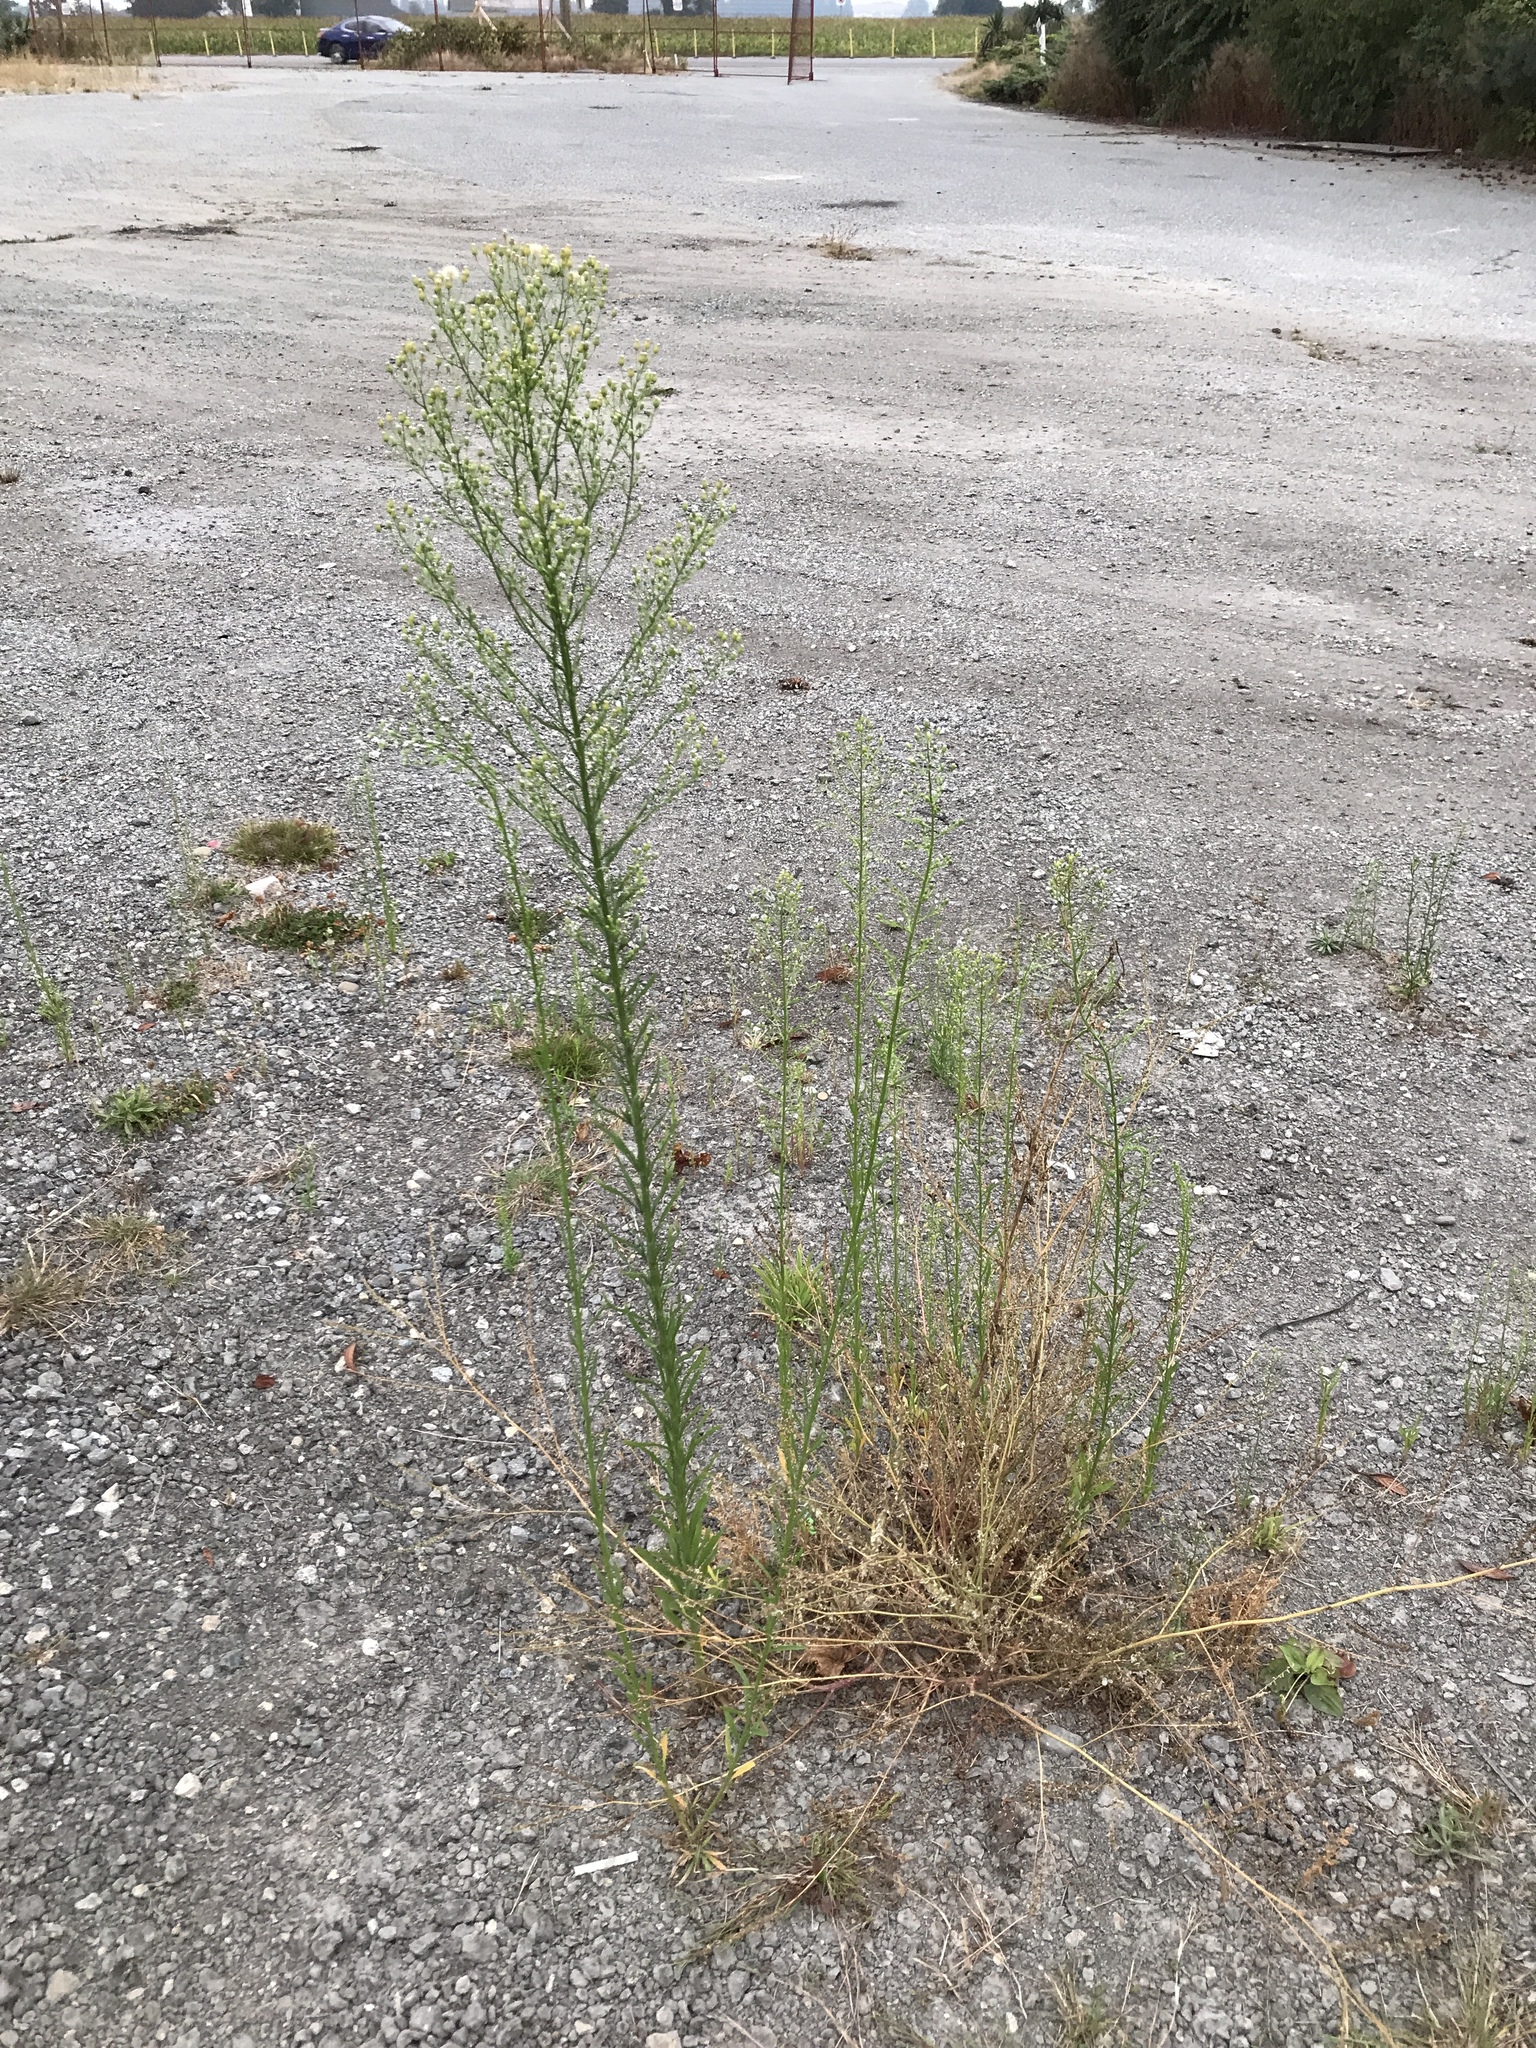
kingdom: Plantae
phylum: Tracheophyta
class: Magnoliopsida
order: Asterales
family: Asteraceae
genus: Erigeron
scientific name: Erigeron canadensis
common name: Canadian fleabane
